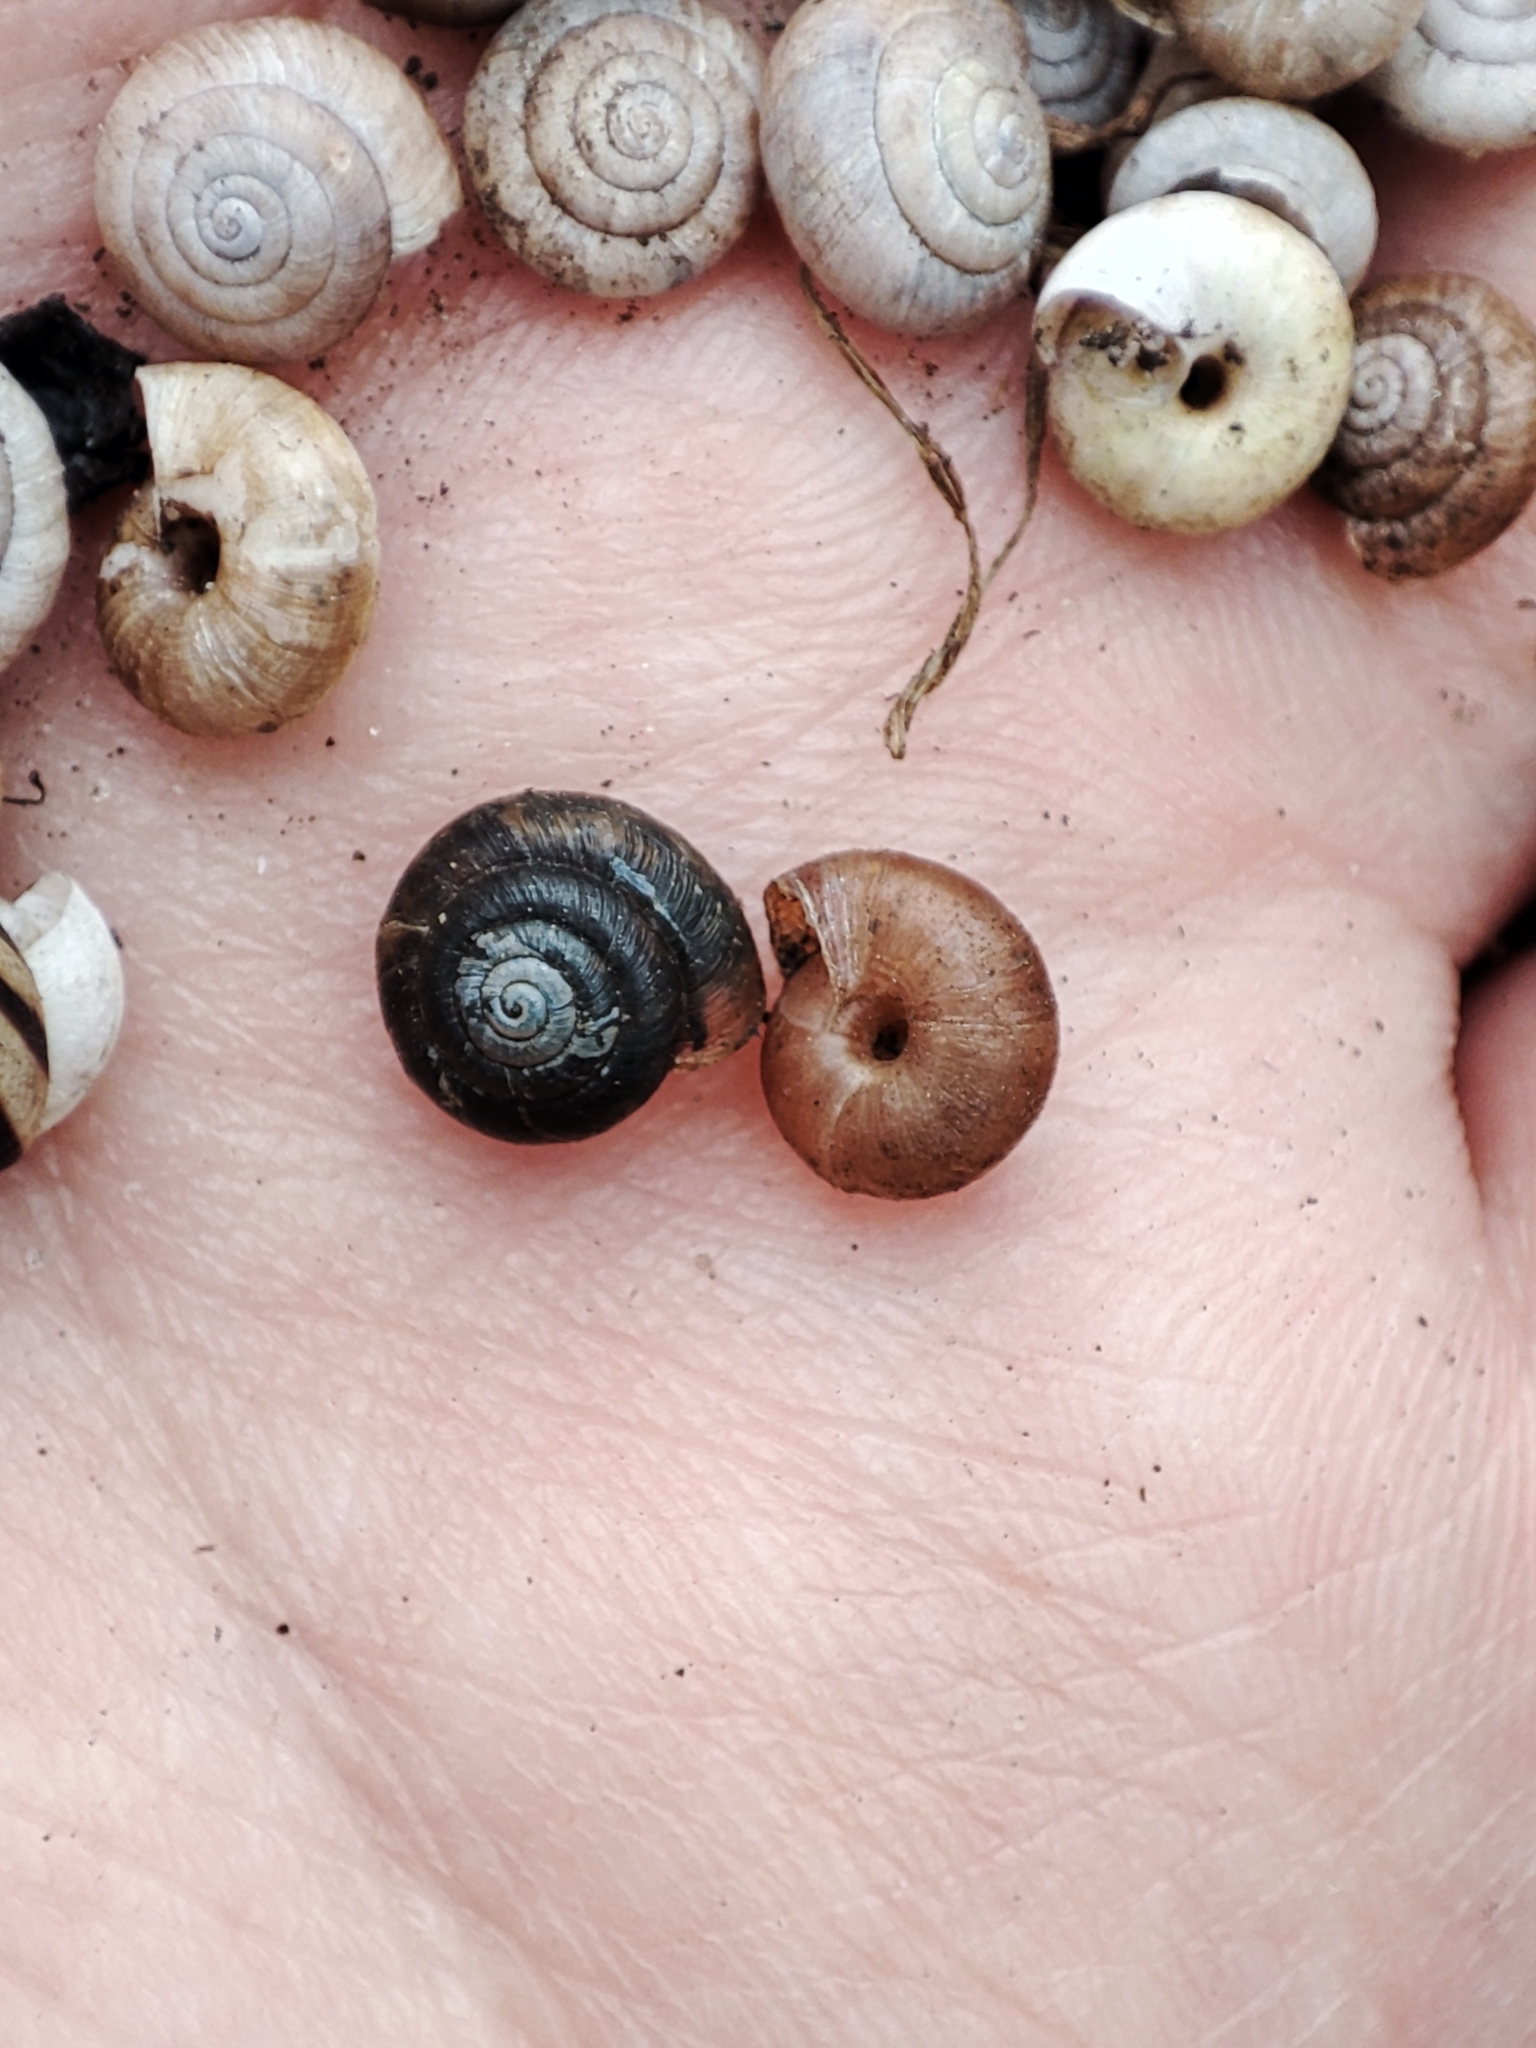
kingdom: Animalia
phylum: Mollusca
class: Gastropoda
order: Stylommatophora
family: Hygromiidae
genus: Trochulus
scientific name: Trochulus hispidus
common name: Hairy snail
